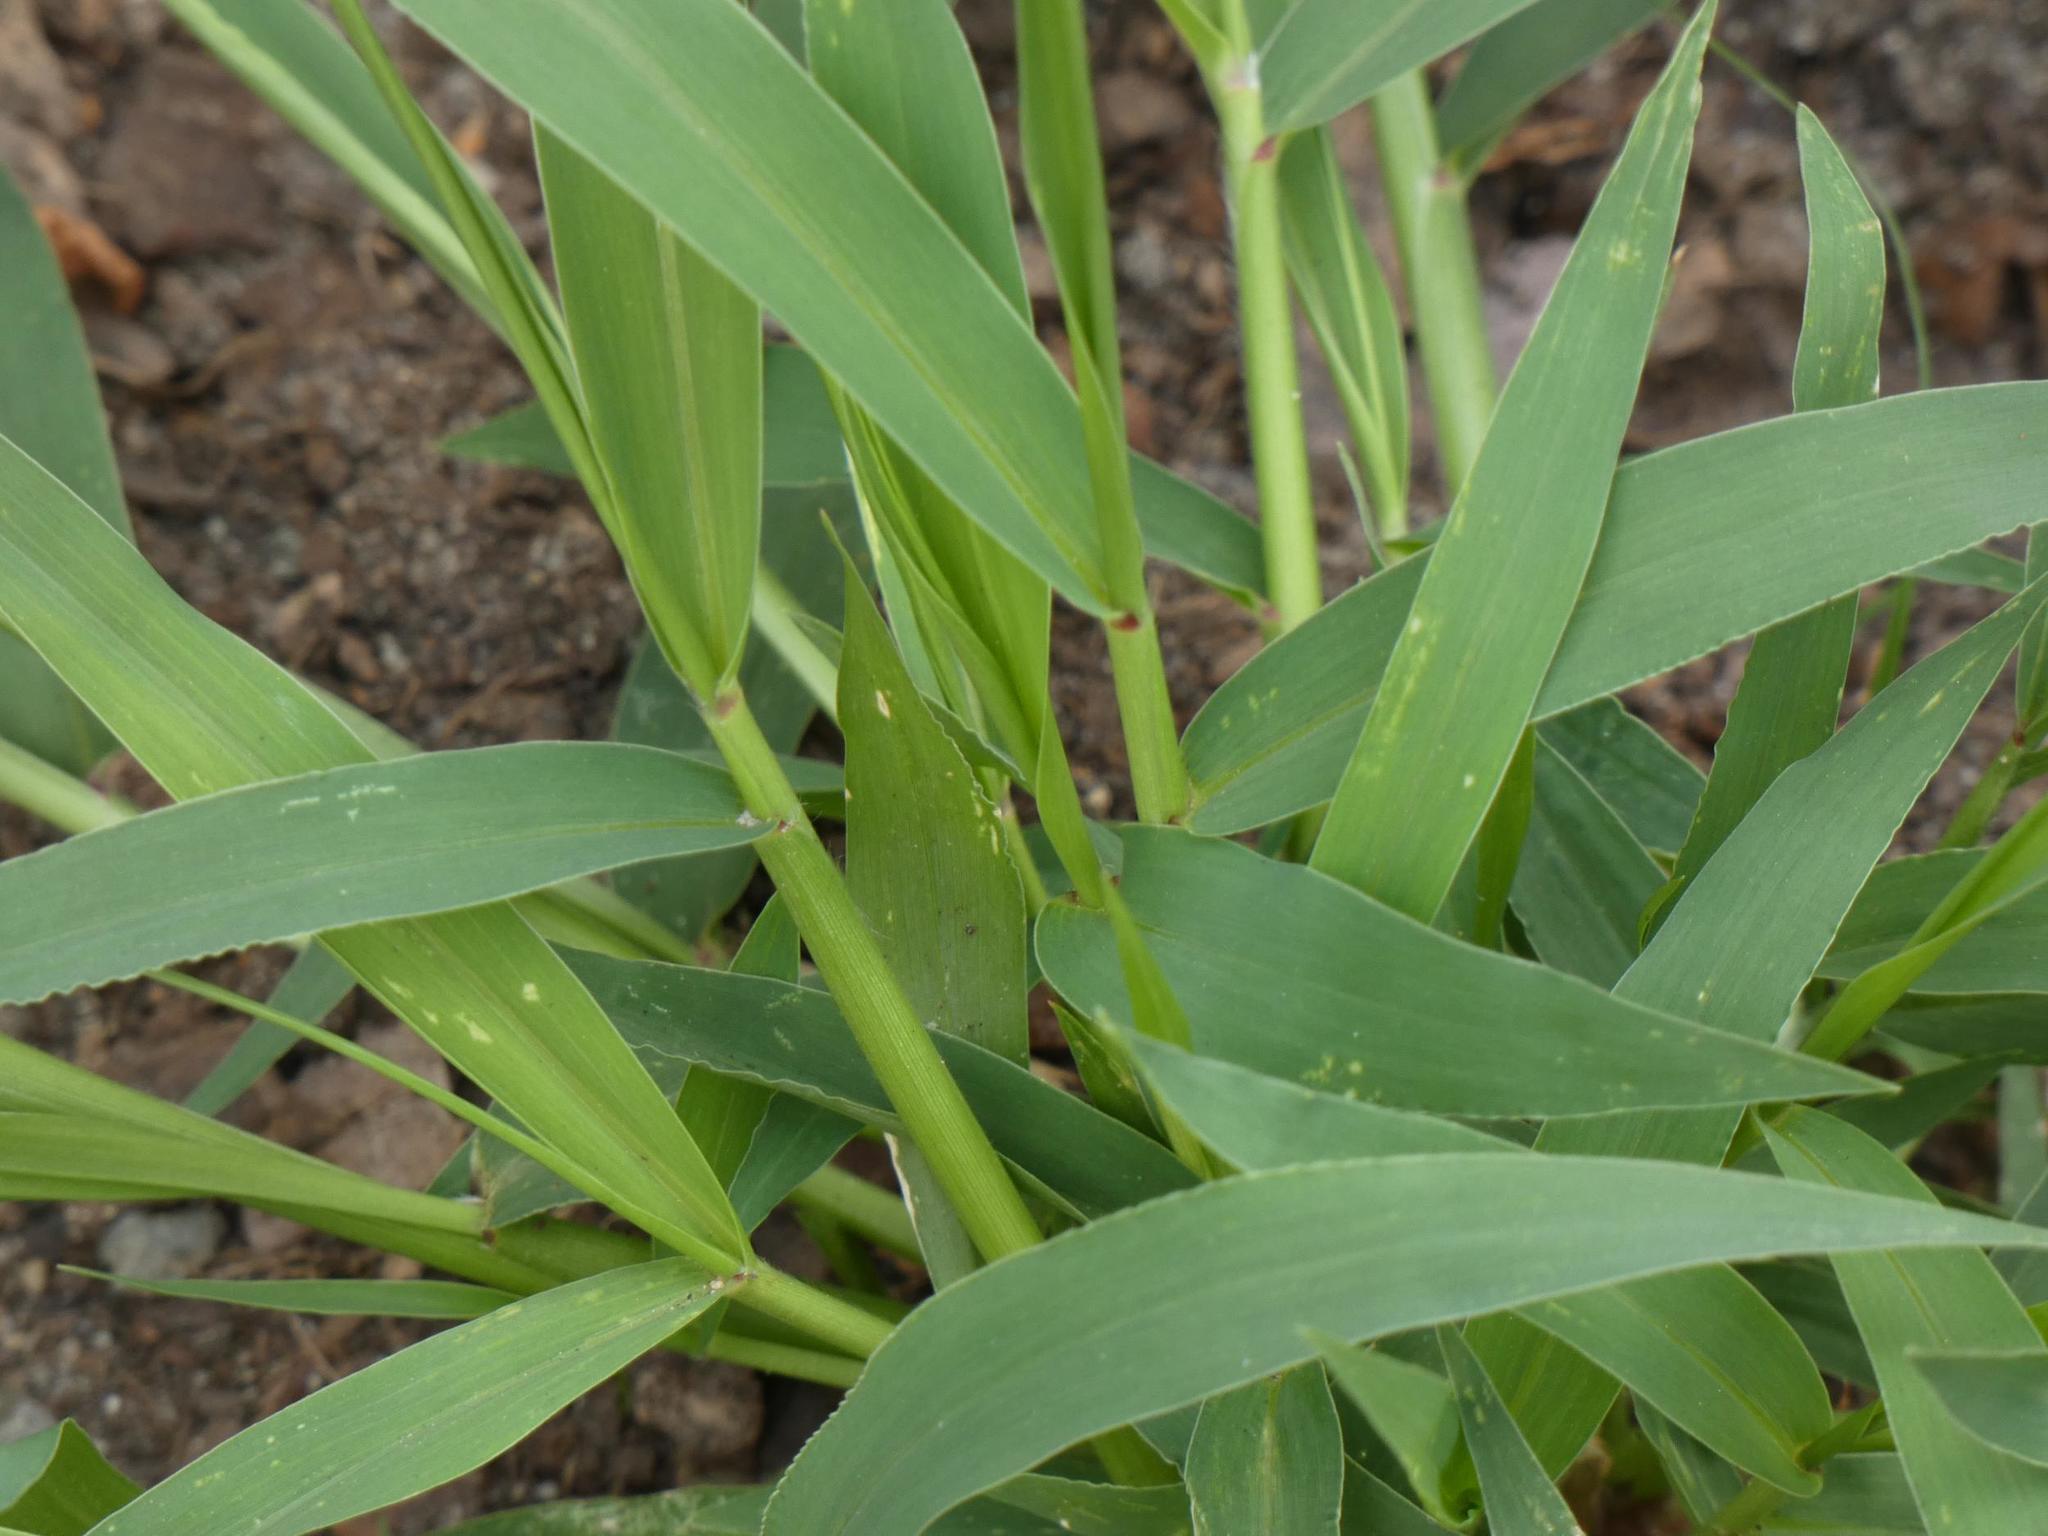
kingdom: Plantae
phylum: Tracheophyta
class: Liliopsida
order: Poales
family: Poaceae
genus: Setaria
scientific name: Setaria viridis
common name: Green bristlegrass
